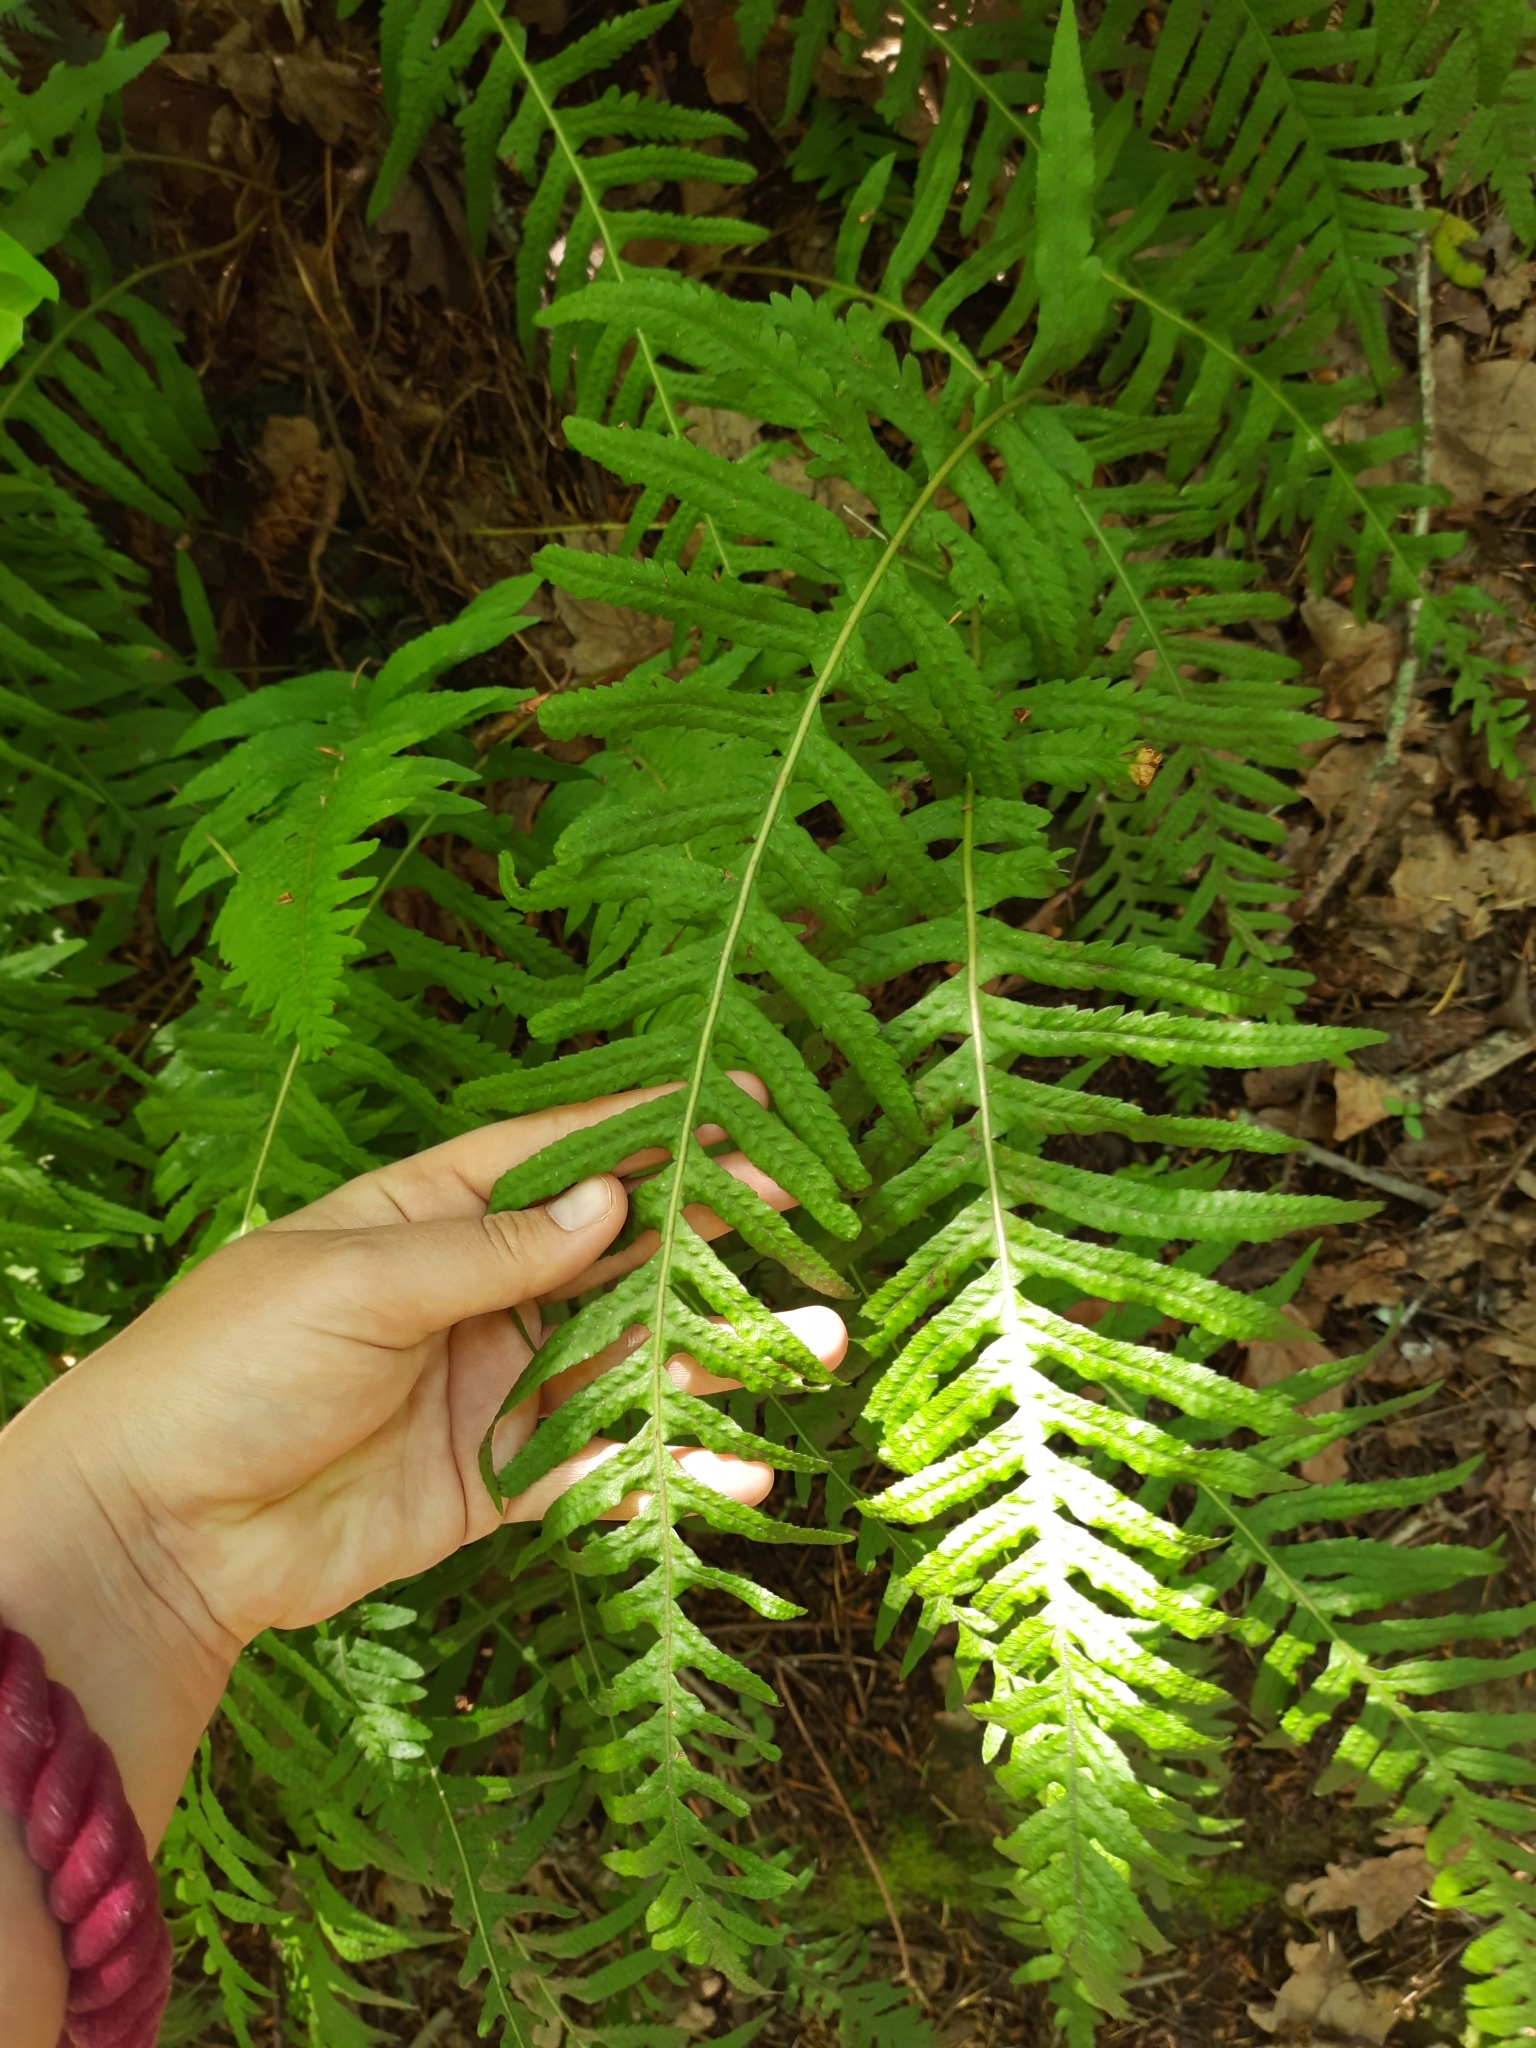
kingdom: Plantae
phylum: Tracheophyta
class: Polypodiopsida
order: Polypodiales
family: Polypodiaceae
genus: Polypodium
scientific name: Polypodium vulgare
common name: Common polypody
